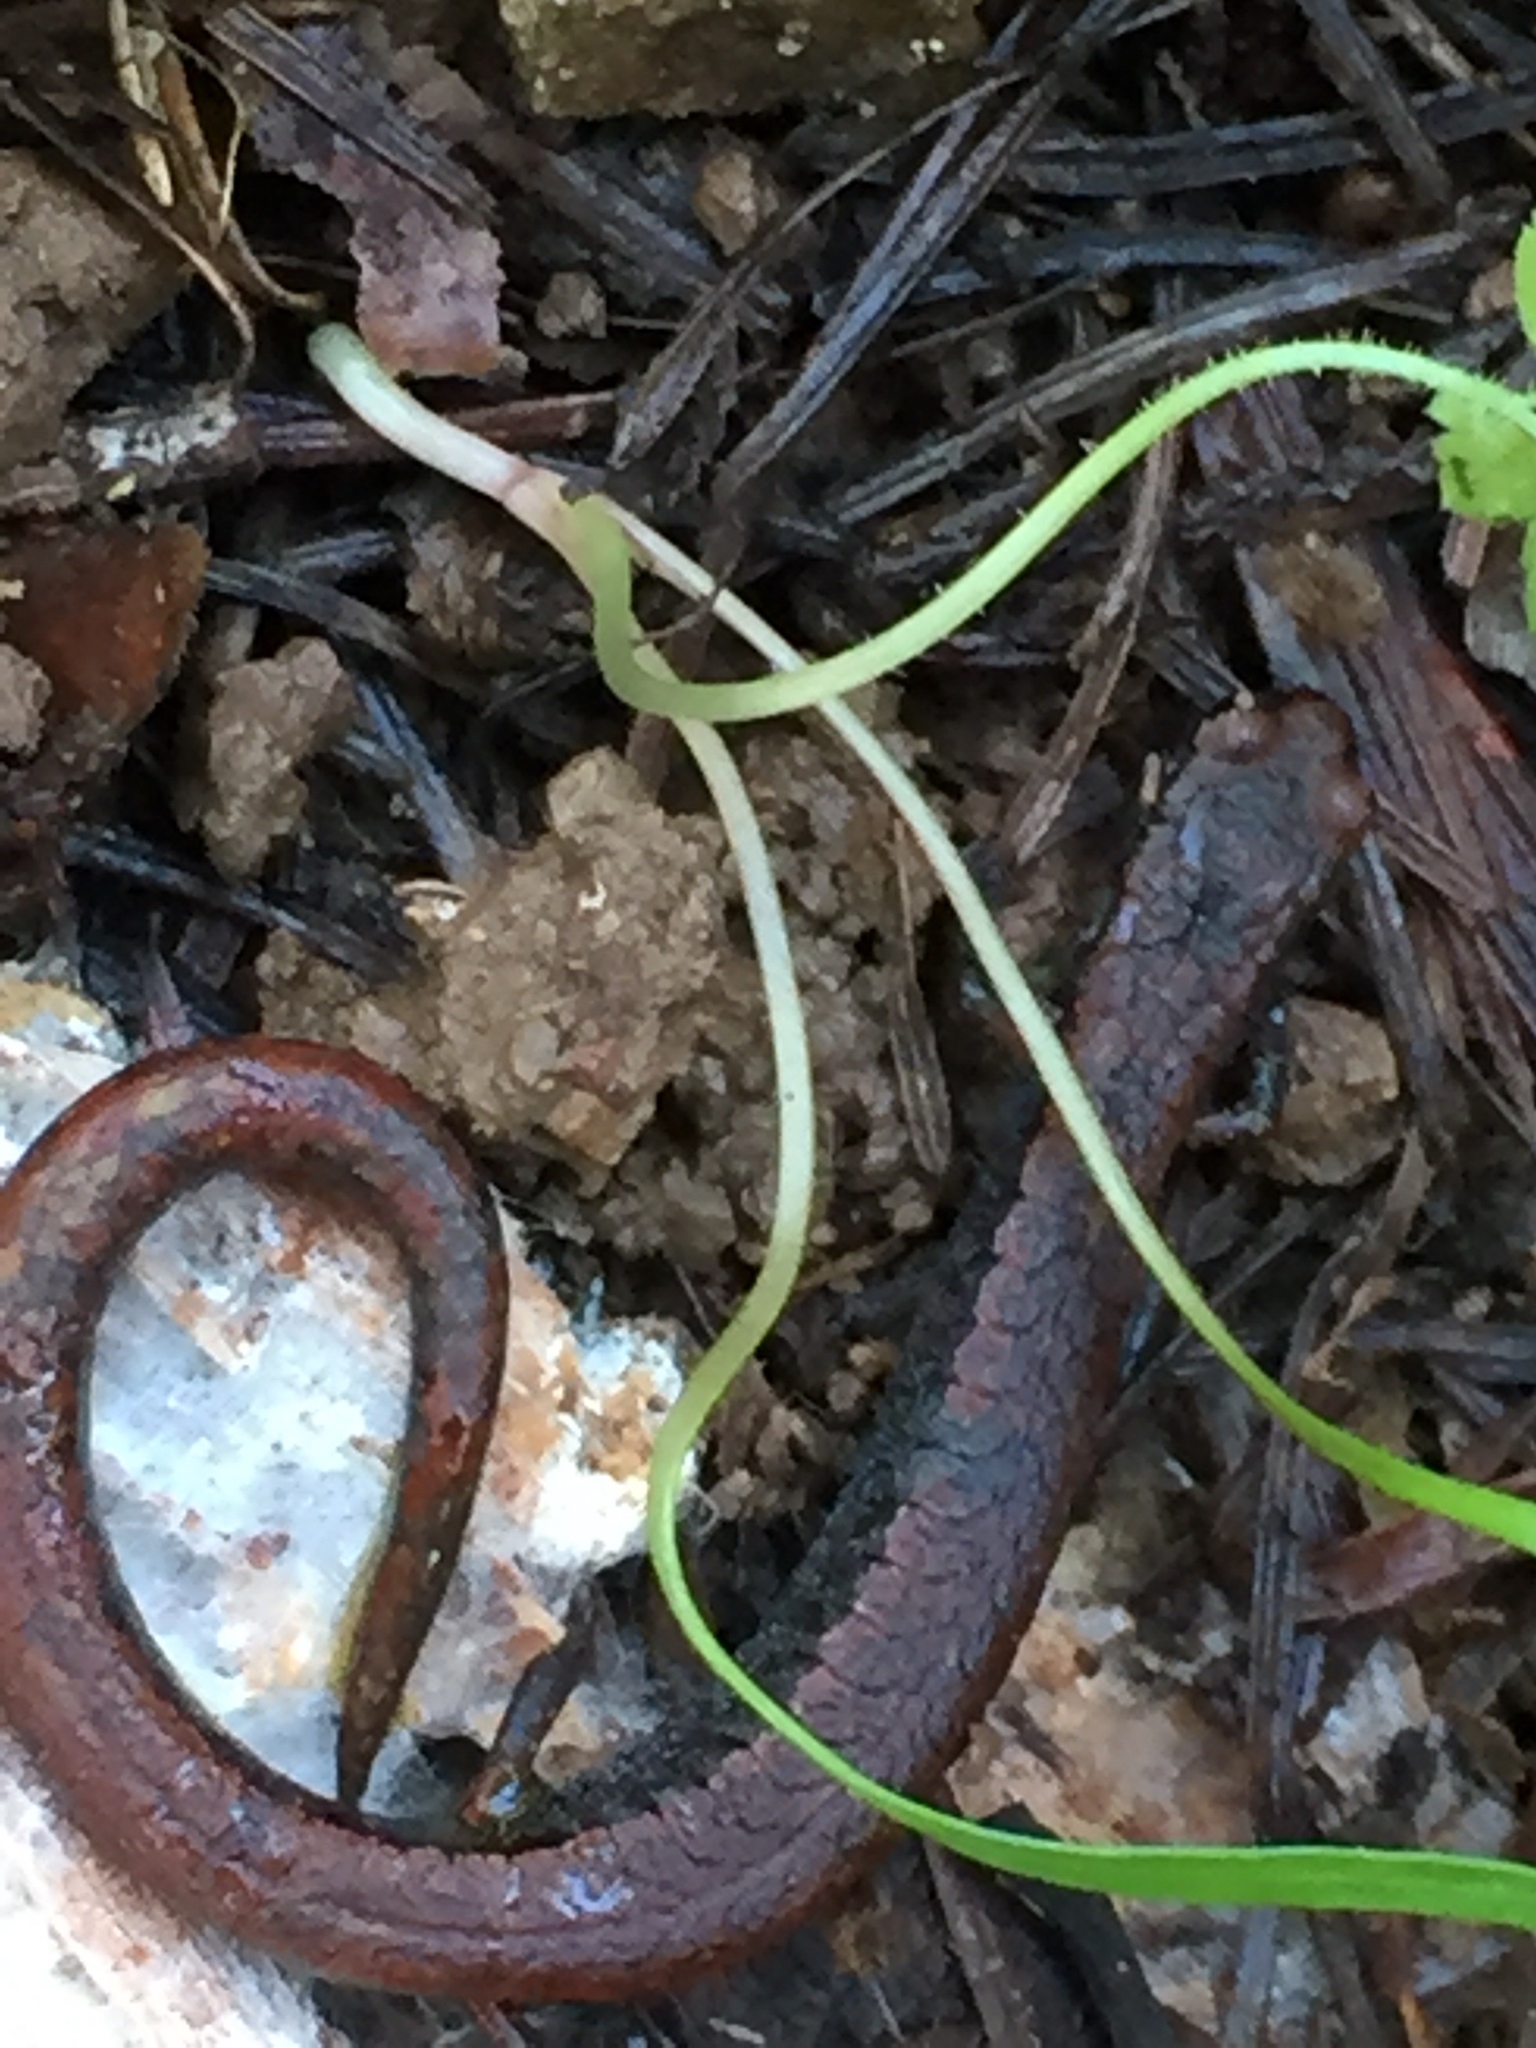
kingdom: Animalia
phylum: Chordata
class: Amphibia
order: Caudata
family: Plethodontidae
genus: Batrachoseps
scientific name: Batrachoseps attenuatus
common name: California slender salamander
